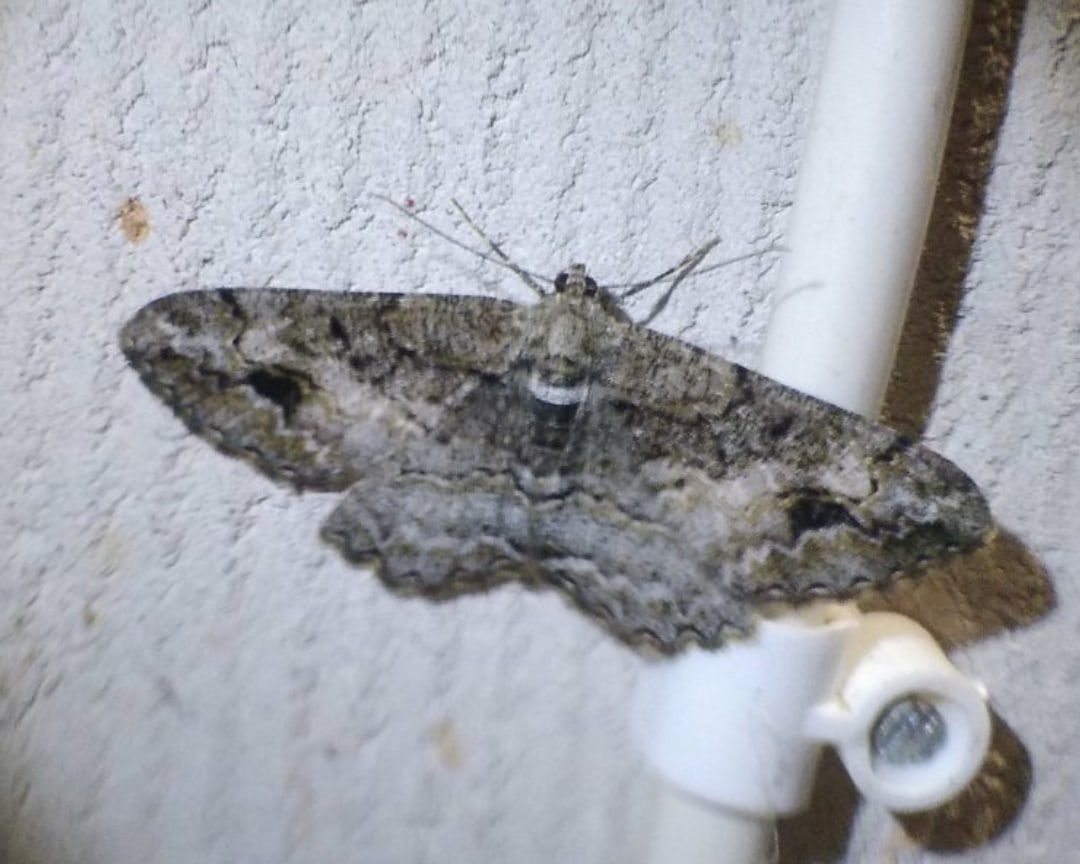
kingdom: Animalia
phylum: Arthropoda
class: Insecta
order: Lepidoptera
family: Geometridae
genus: Alcis
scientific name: Alcis deversata
